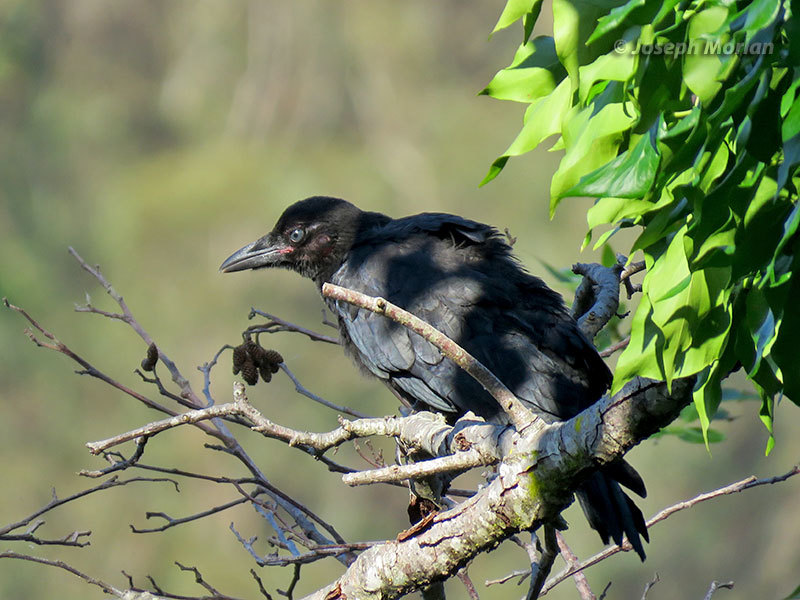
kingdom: Animalia
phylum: Chordata
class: Aves
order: Passeriformes
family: Corvidae
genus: Corvus
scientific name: Corvus brachyrhynchos
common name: American crow
